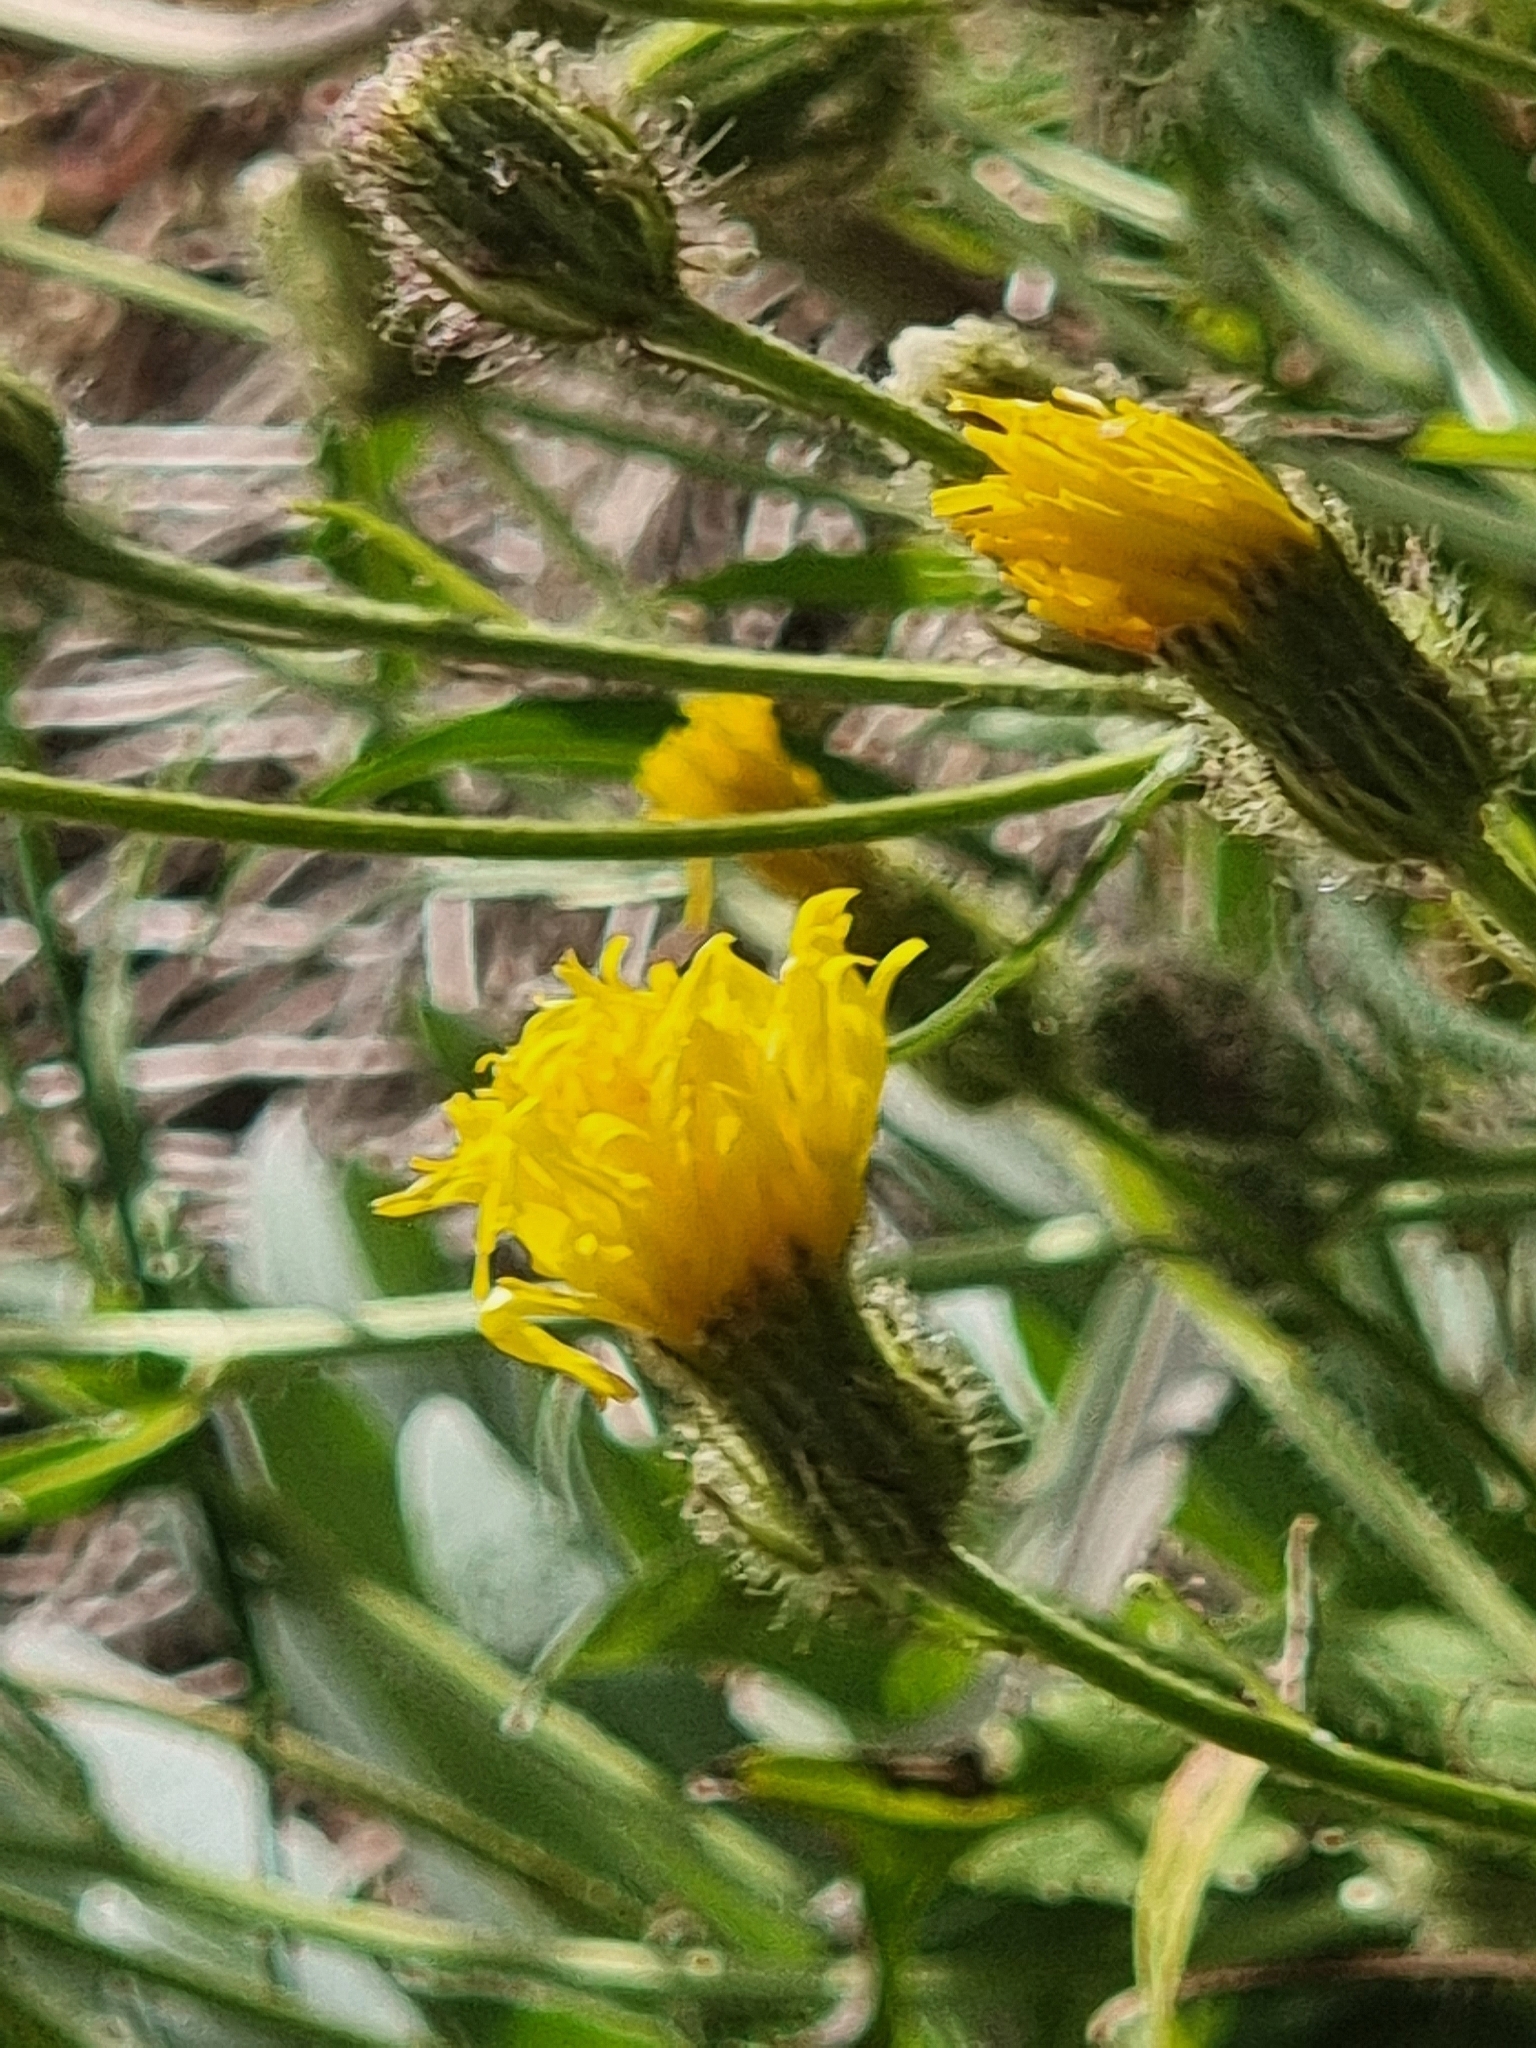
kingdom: Plantae
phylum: Tracheophyta
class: Magnoliopsida
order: Asterales
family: Asteraceae
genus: Crepis
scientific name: Crepis vesicaria
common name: Beaked hawksbeard
